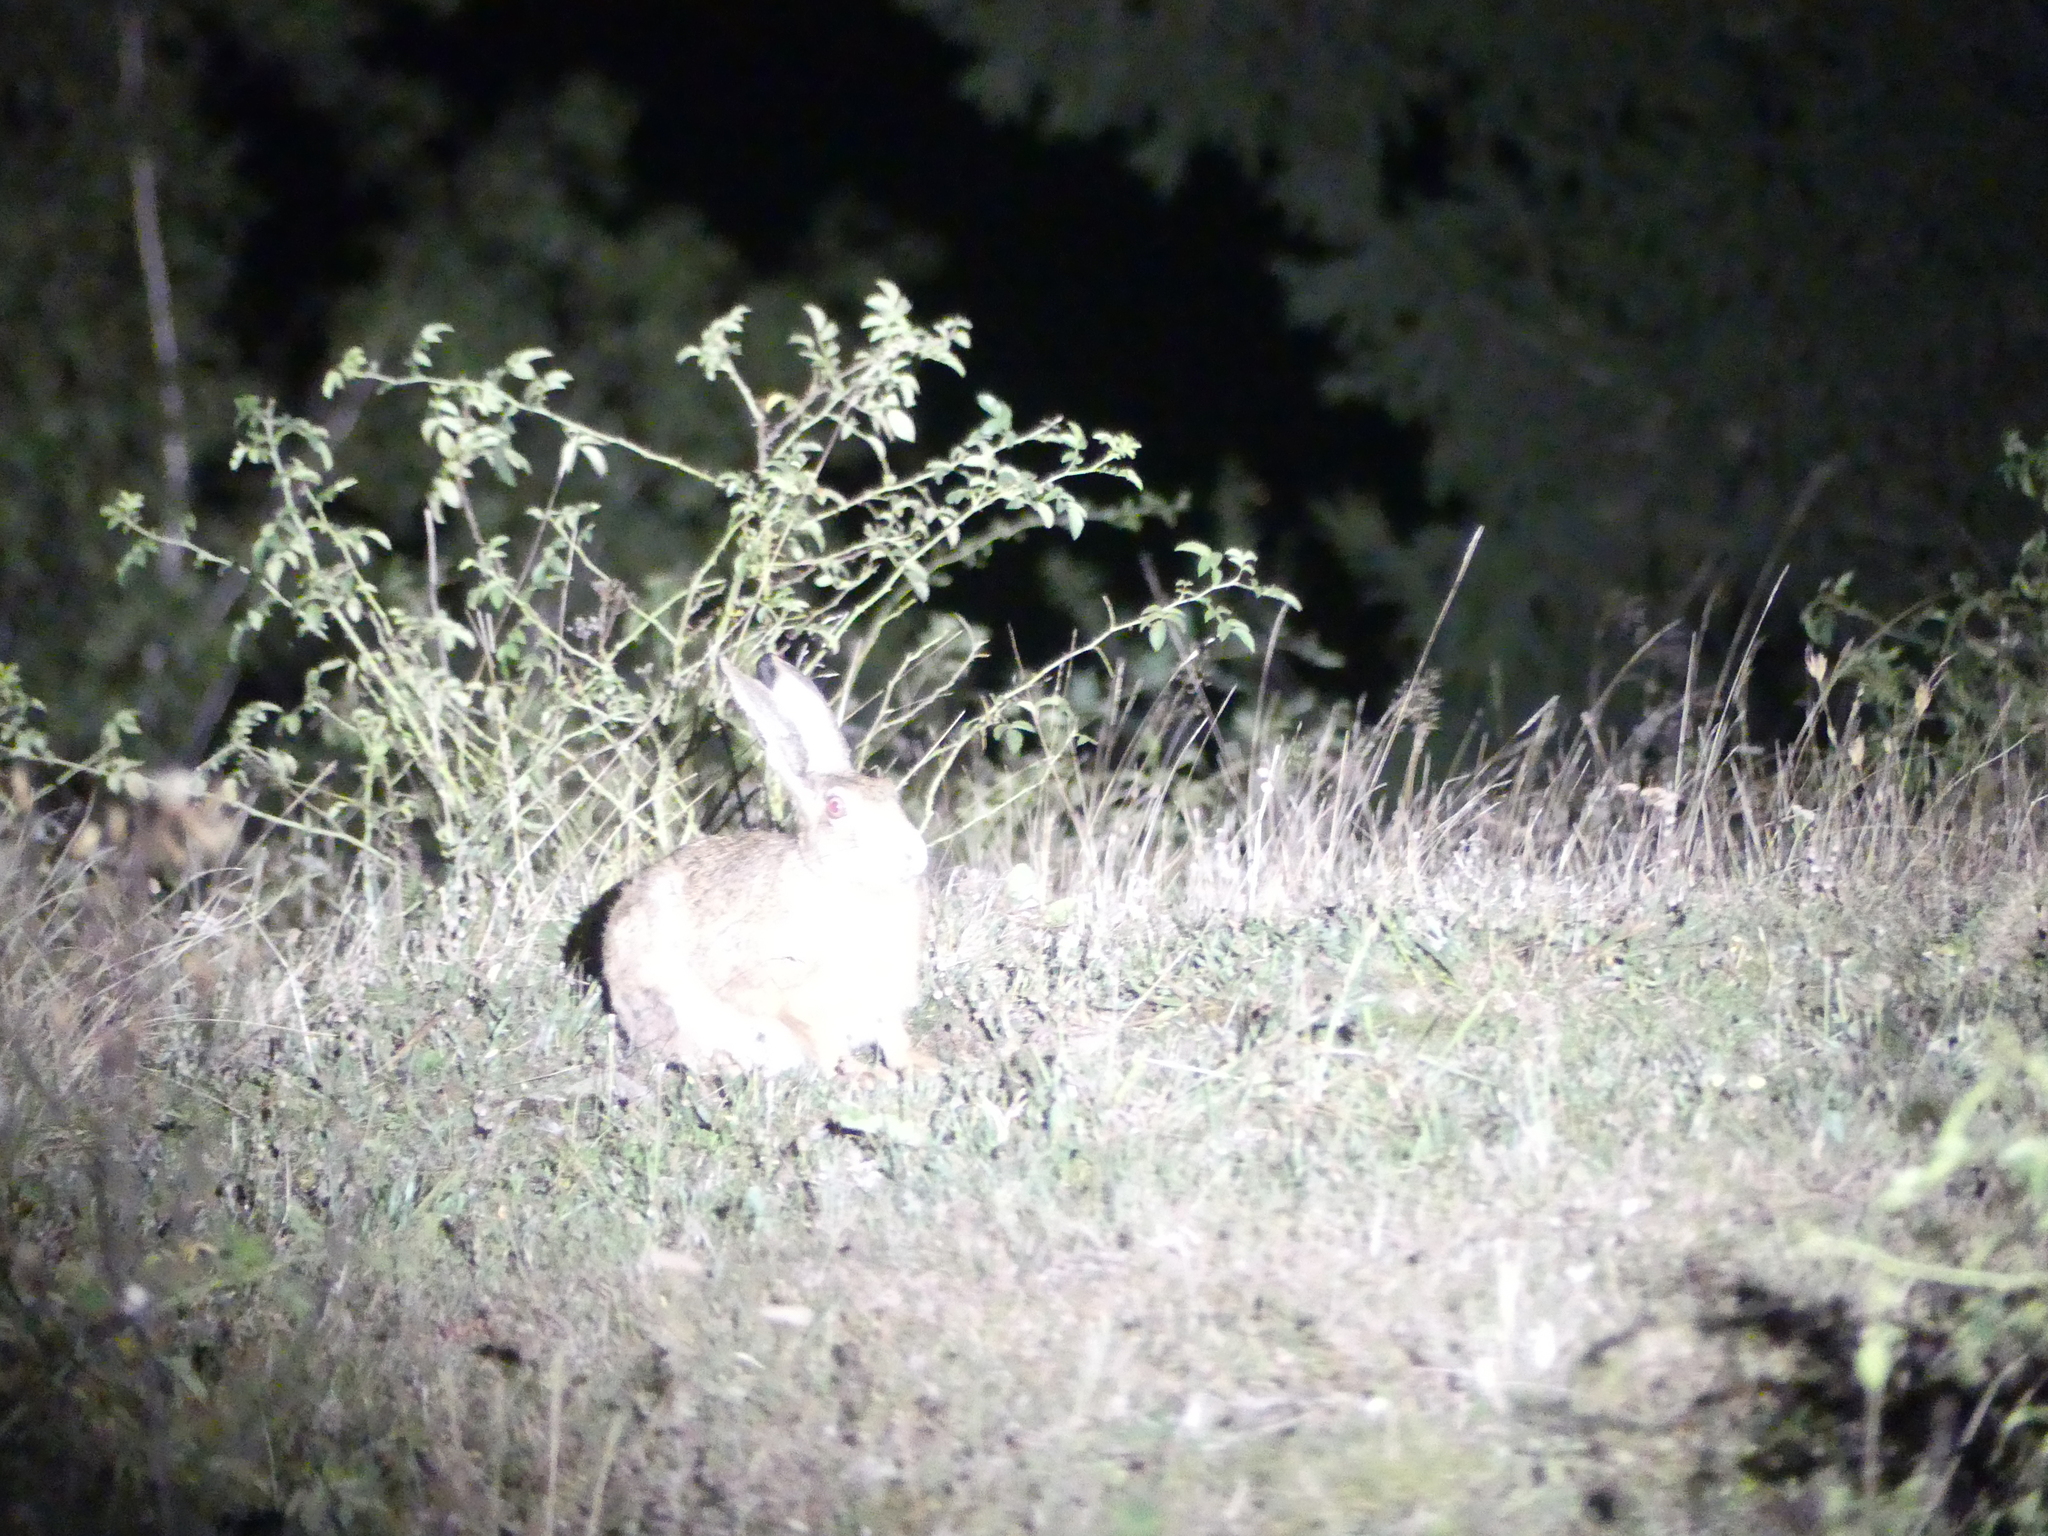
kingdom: Animalia
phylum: Chordata
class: Mammalia
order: Lagomorpha
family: Leporidae
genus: Lepus
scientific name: Lepus europaeus
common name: European hare
